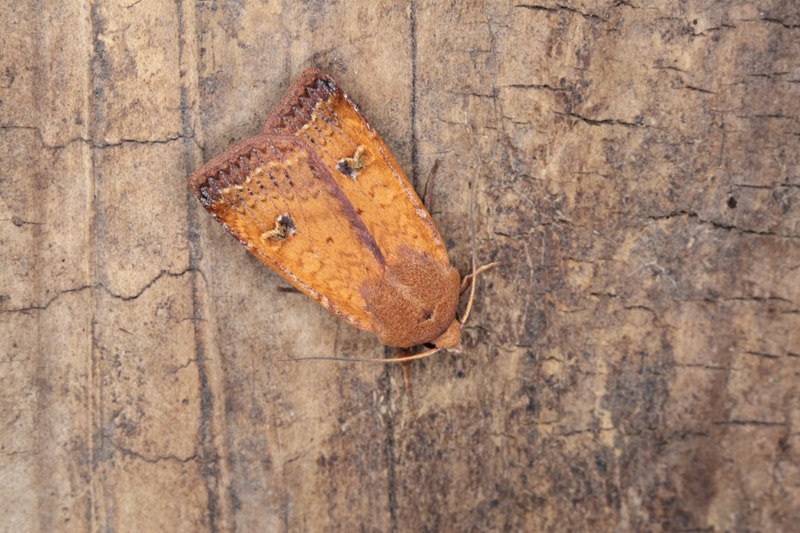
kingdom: Animalia
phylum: Arthropoda
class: Insecta
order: Lepidoptera
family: Noctuidae
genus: Diarsia
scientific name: Diarsia intermixta
